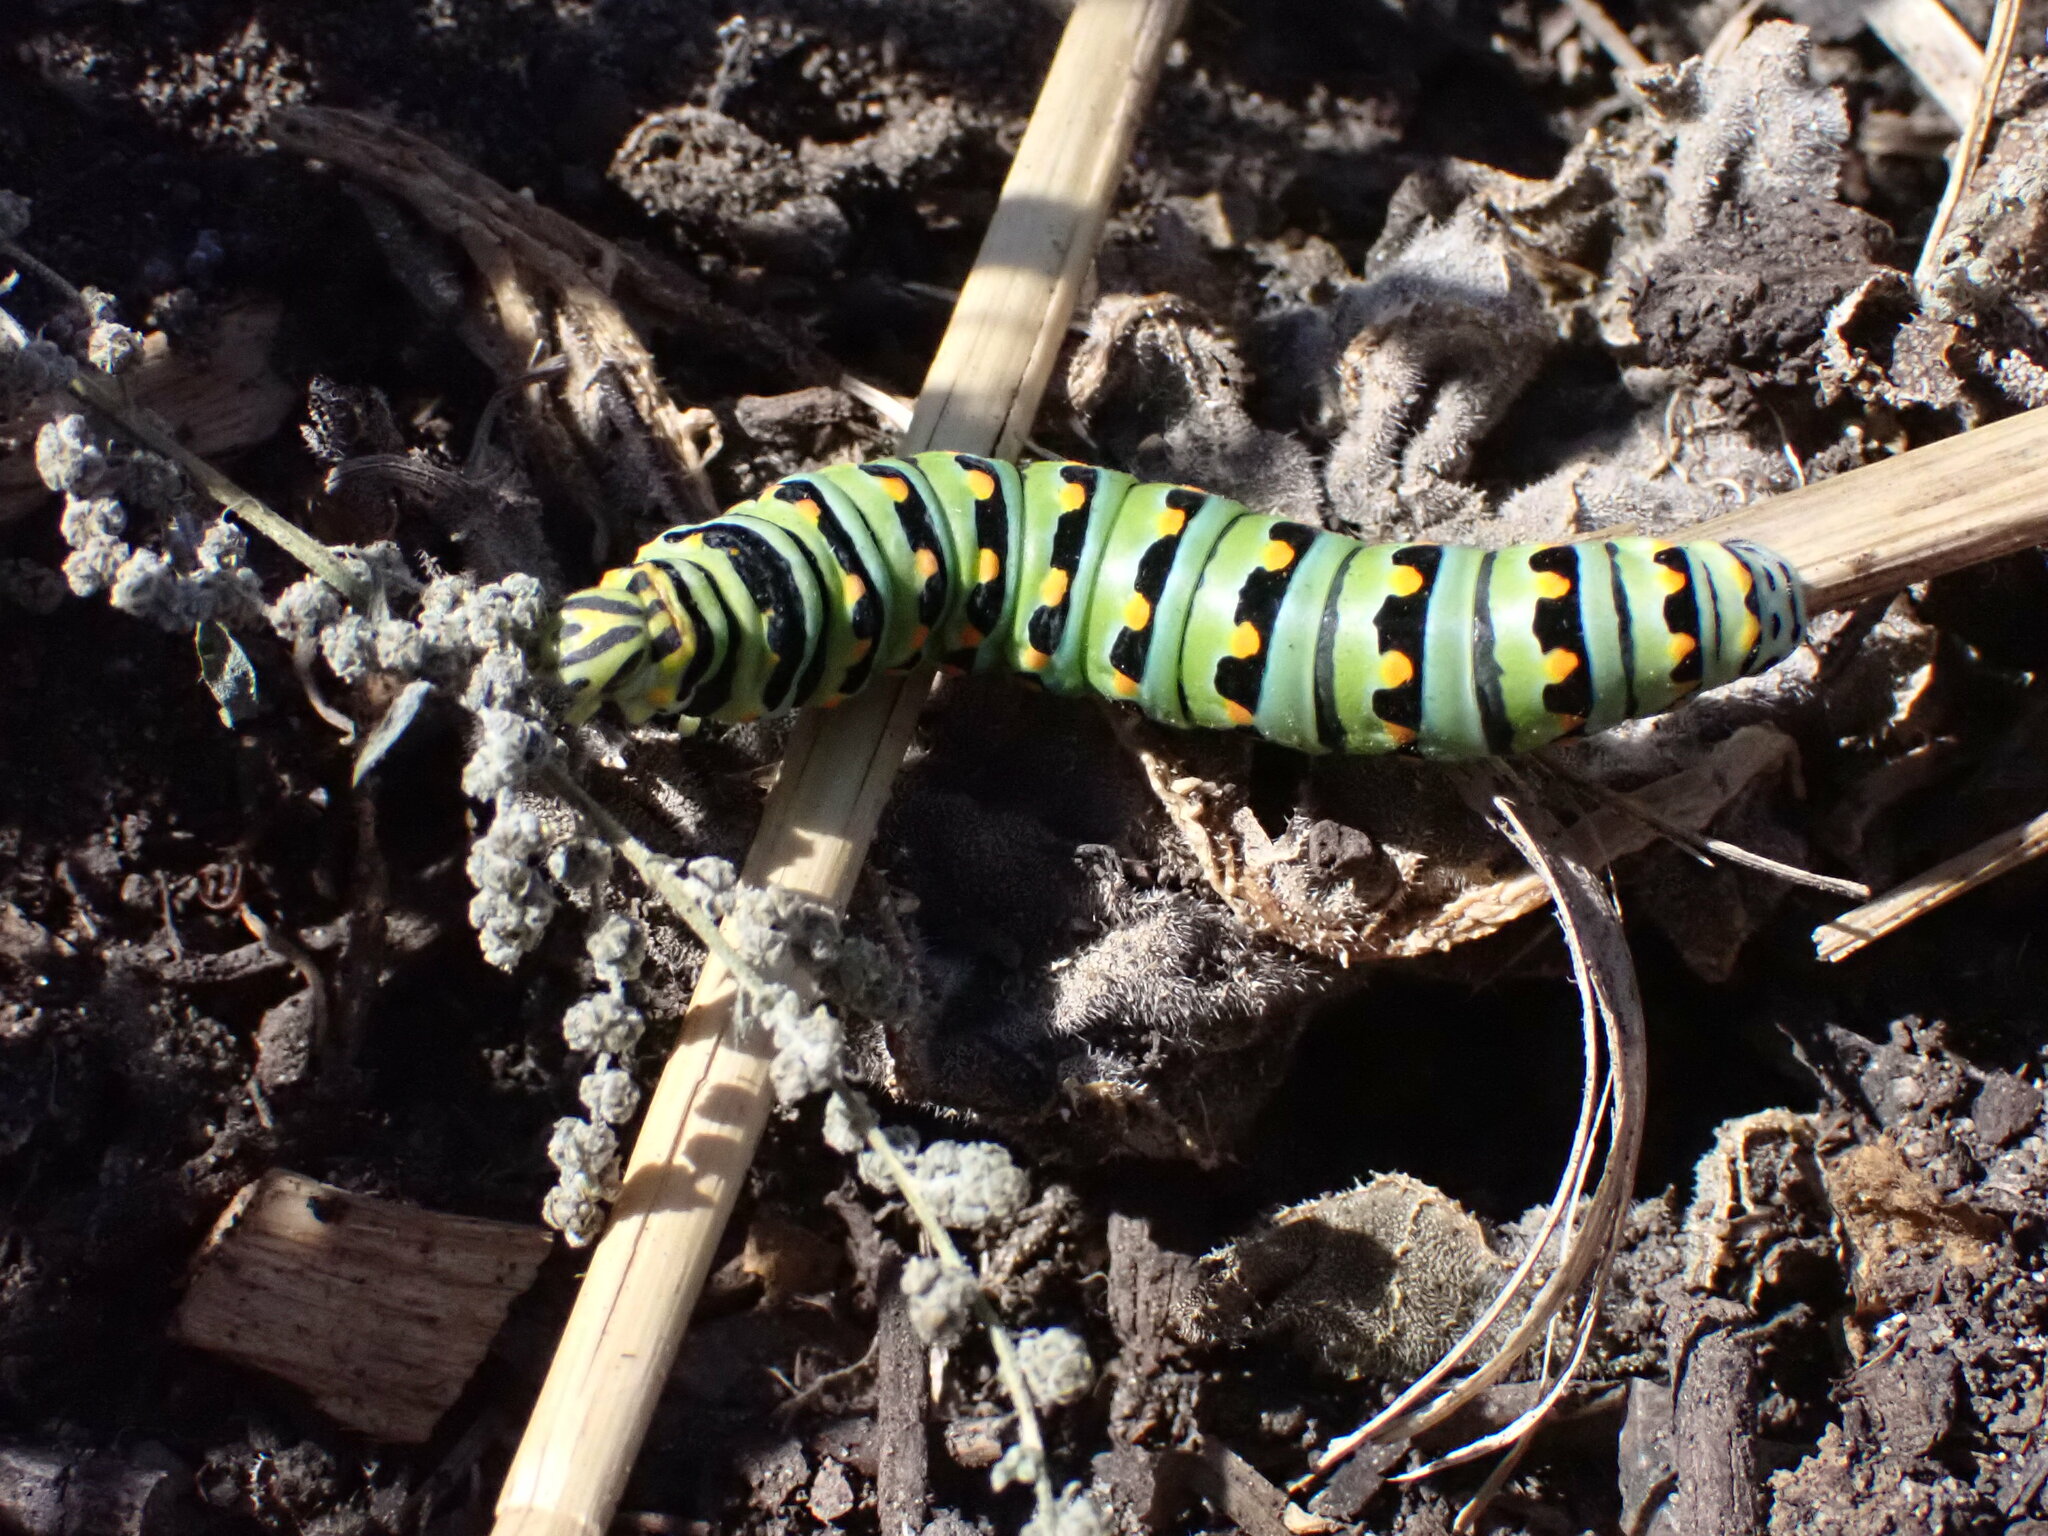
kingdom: Animalia
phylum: Arthropoda
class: Insecta
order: Lepidoptera
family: Papilionidae
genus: Papilio
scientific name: Papilio zelicaon
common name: Anise swallowtail
